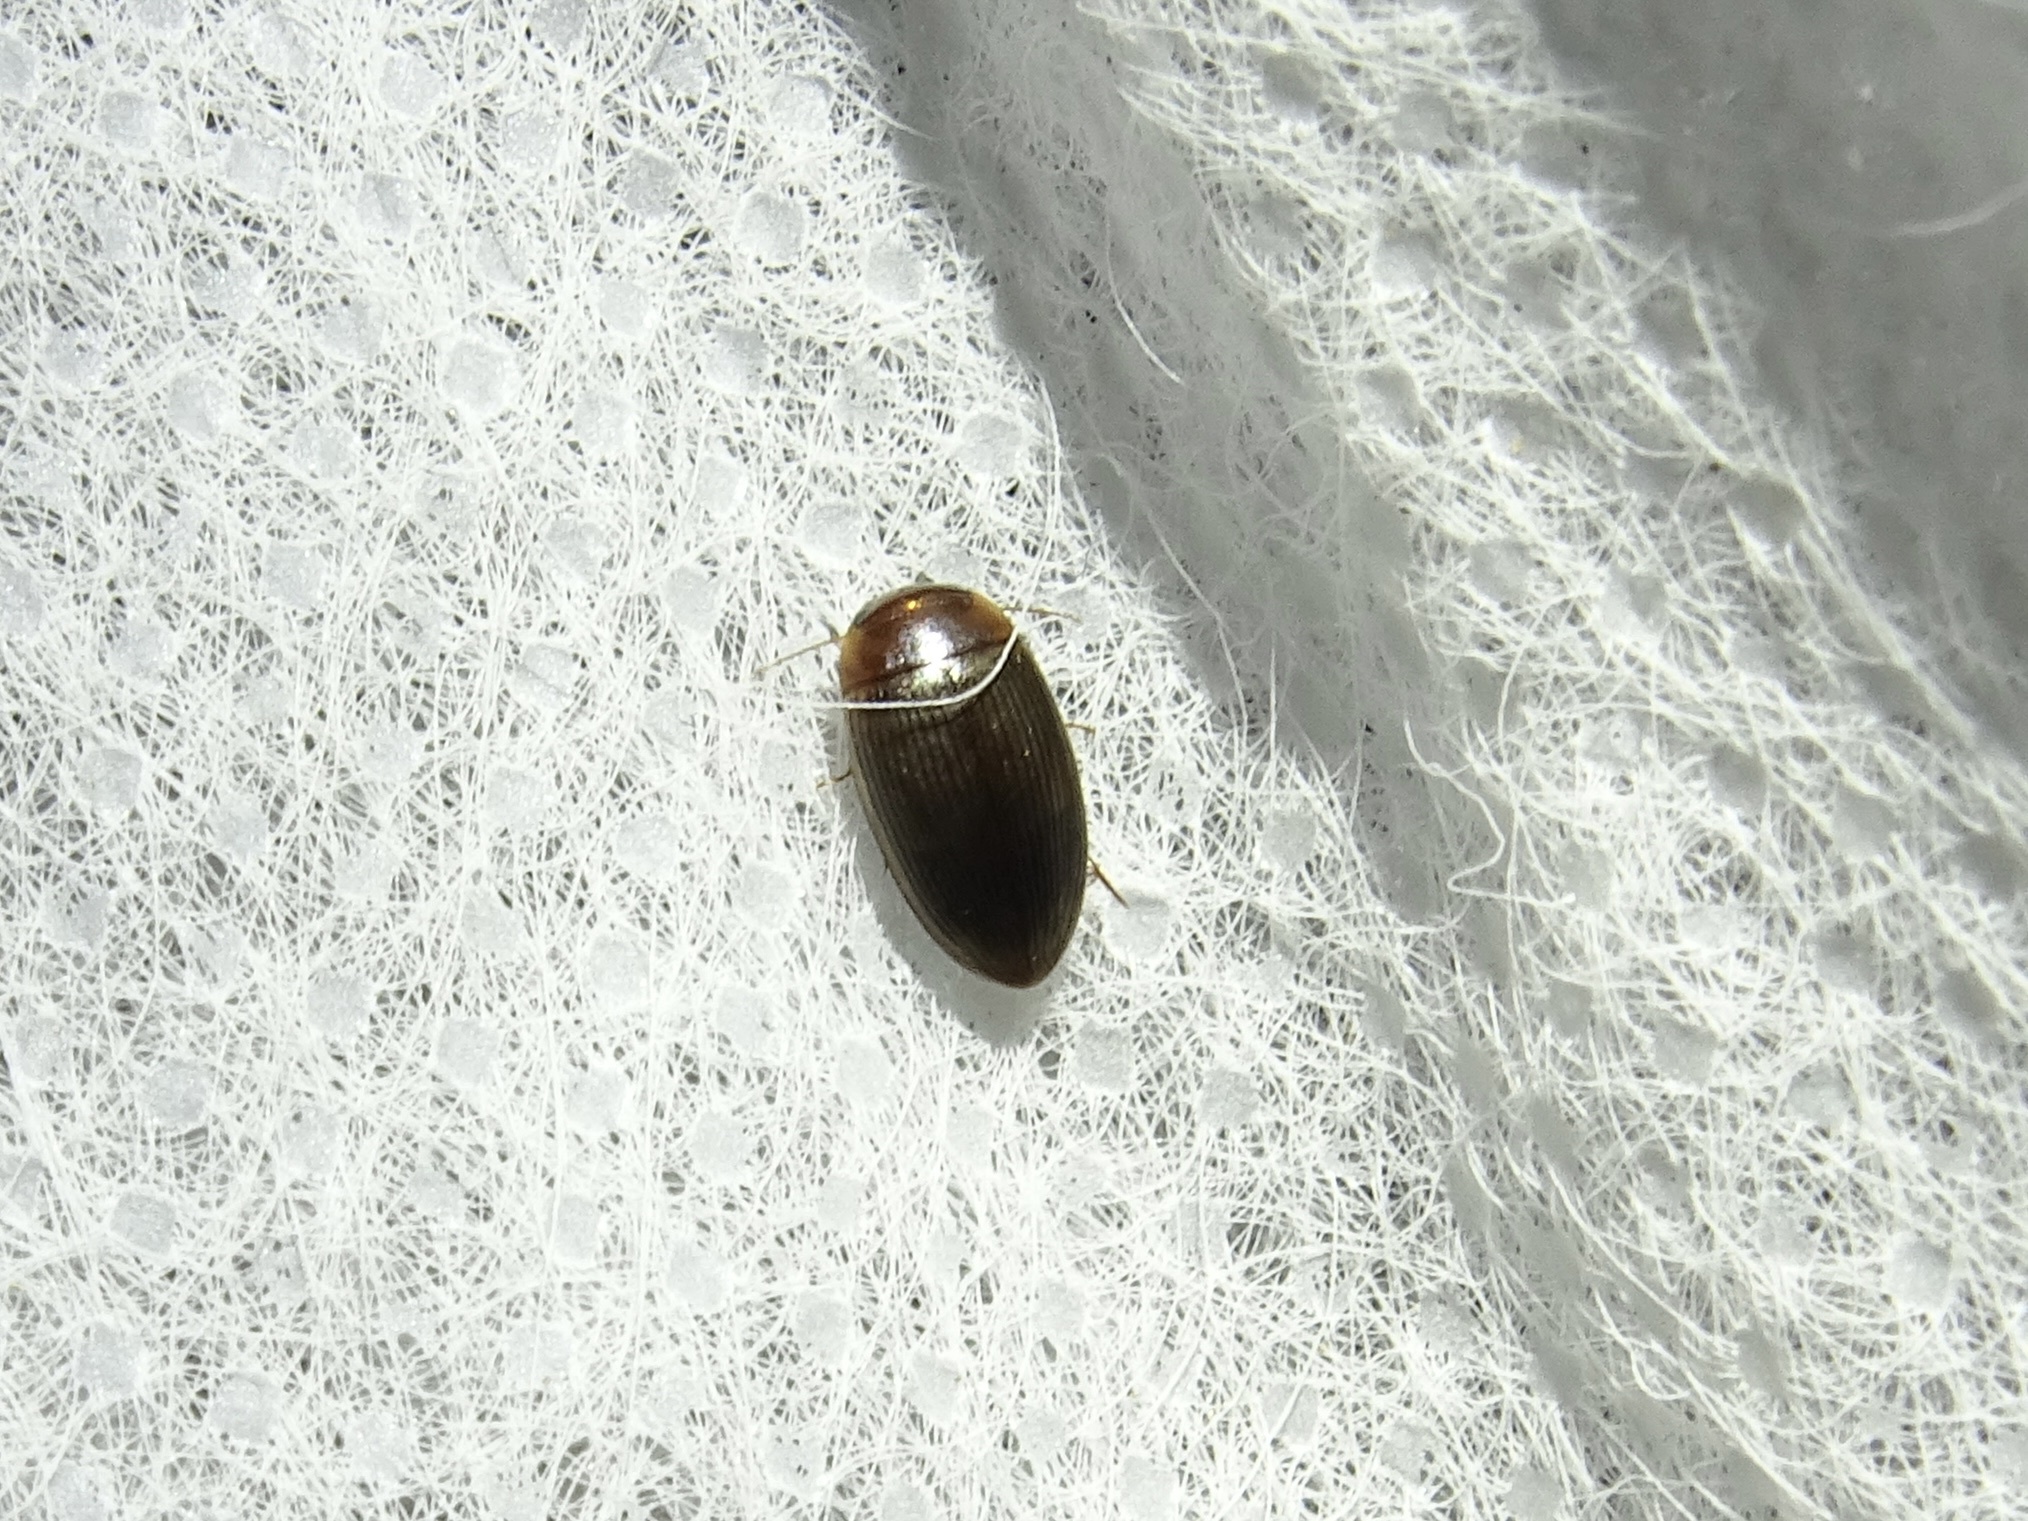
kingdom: Animalia
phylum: Arthropoda
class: Insecta
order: Coleoptera
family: Dytiscidae
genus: Copelatus
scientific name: Copelatus glyphicus
